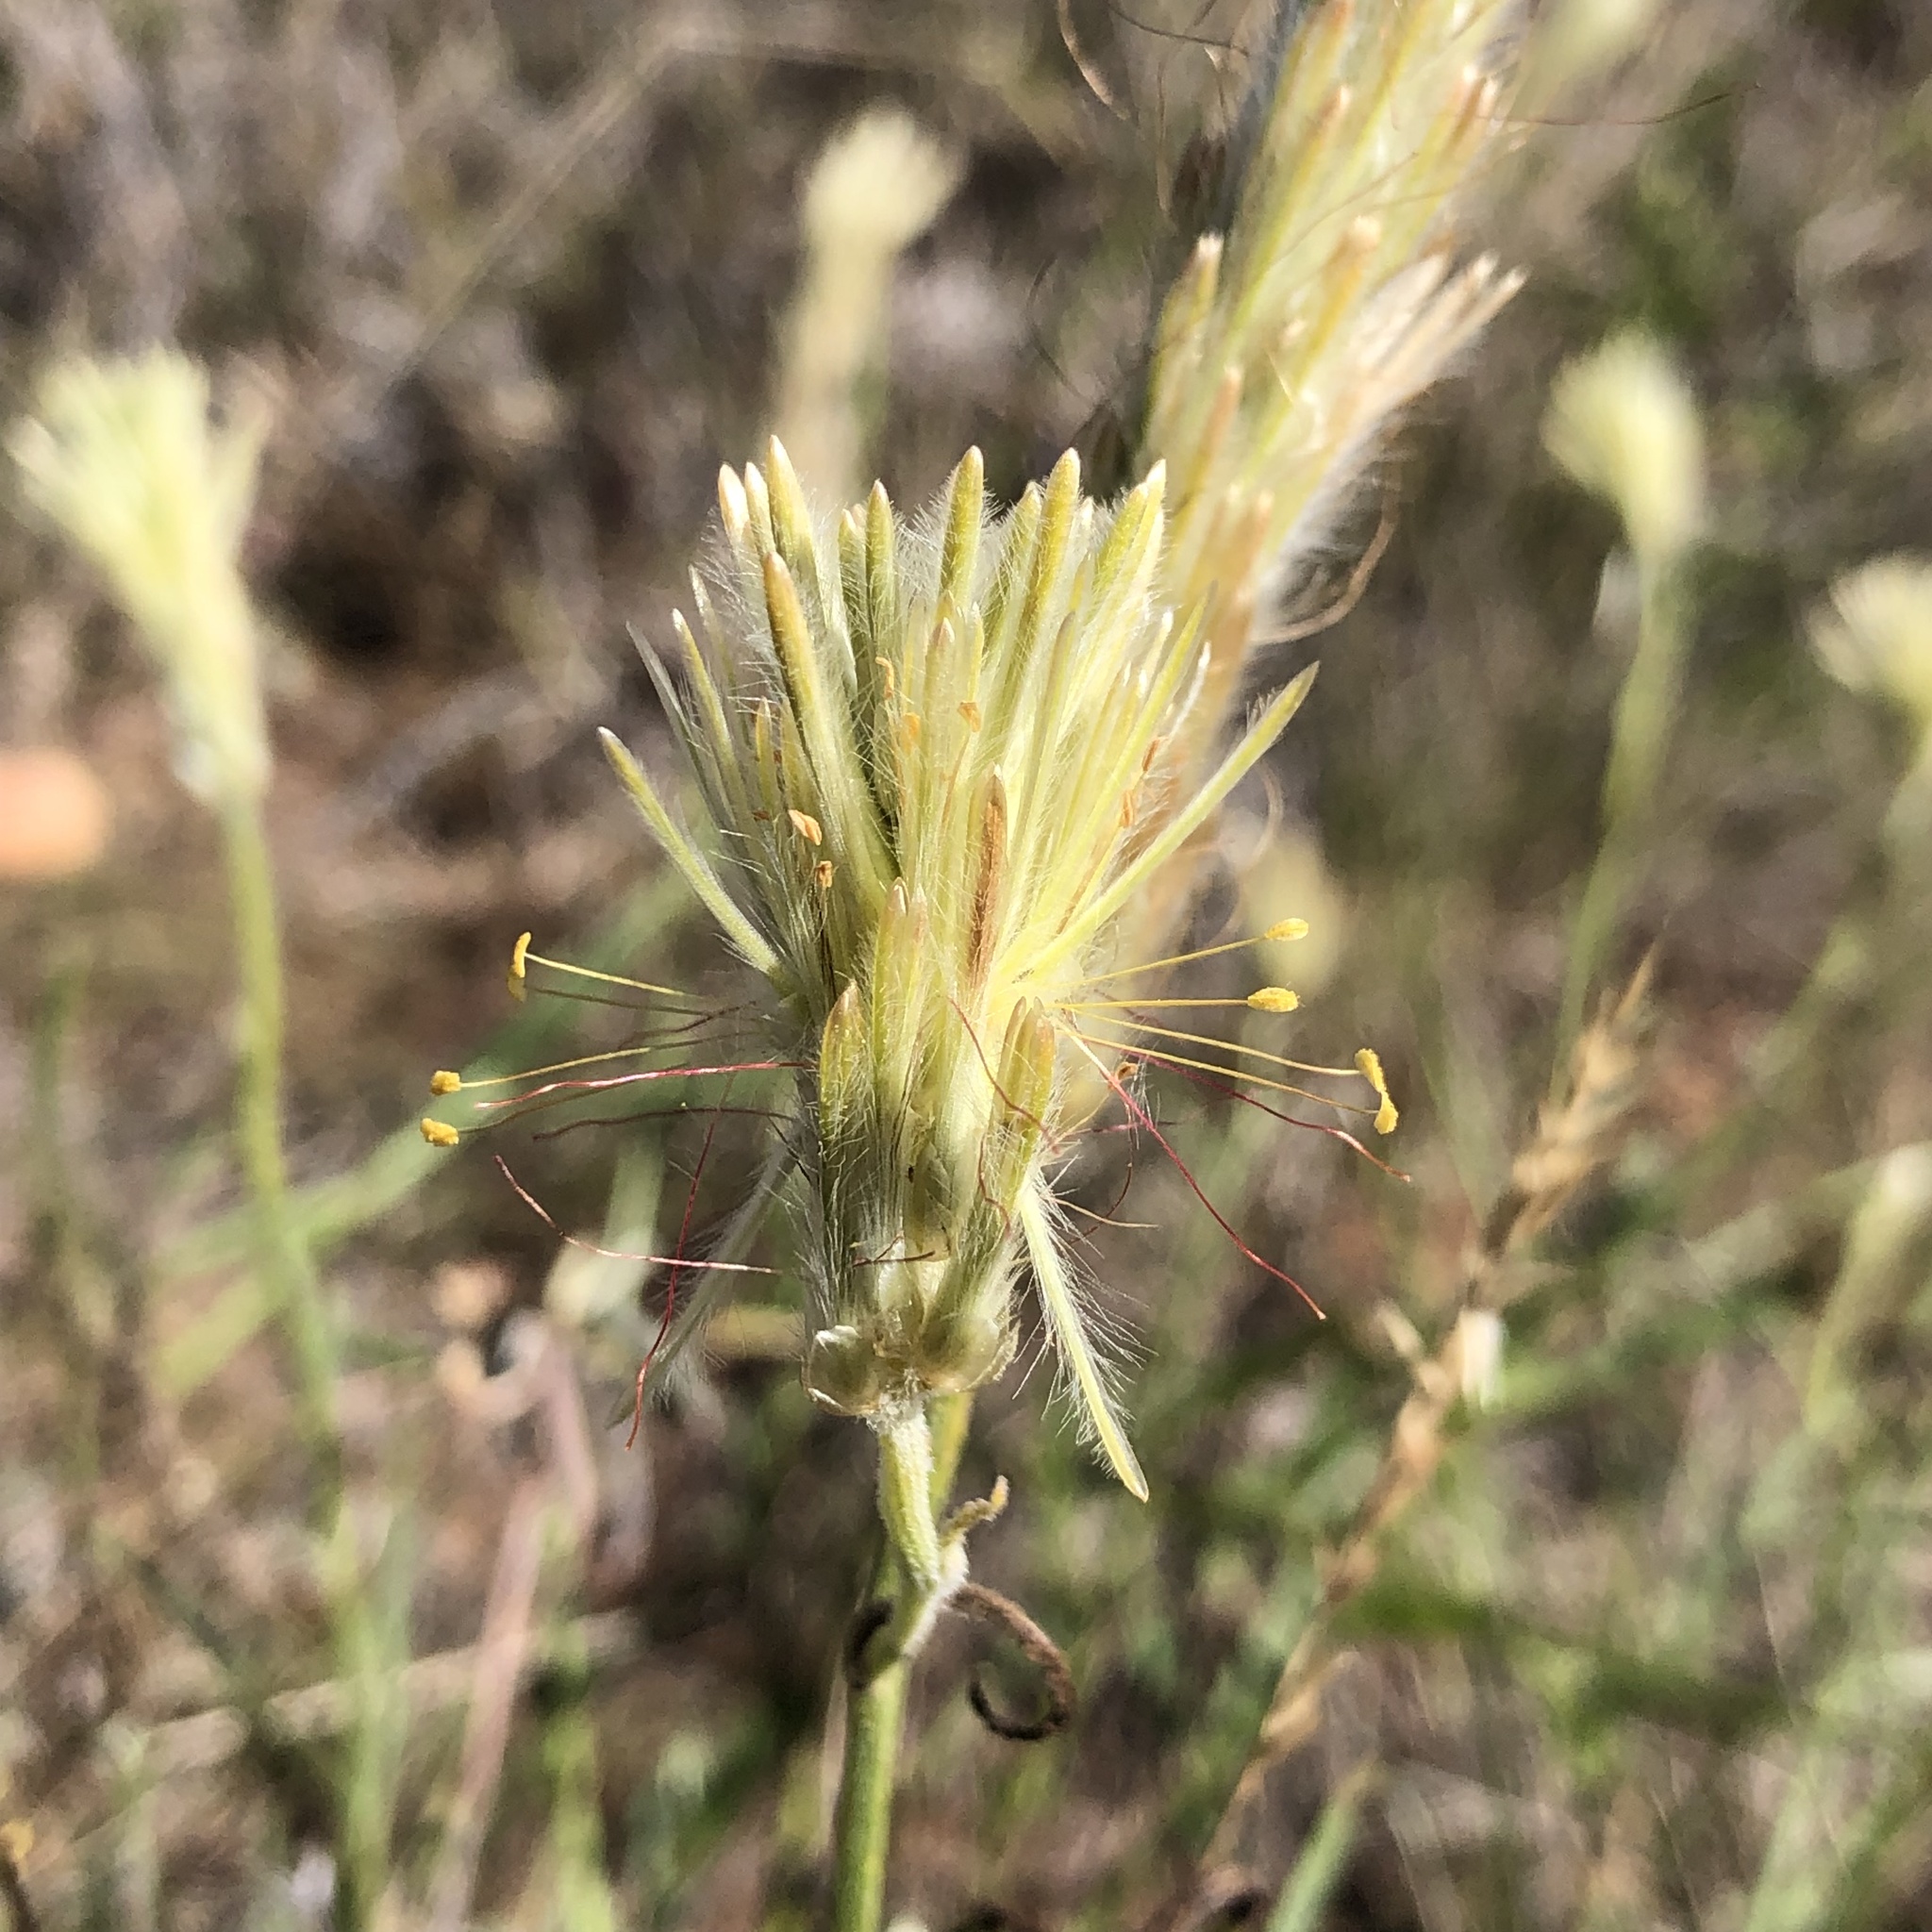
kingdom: Plantae
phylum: Tracheophyta
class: Magnoliopsida
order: Caryophyllales
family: Amaranthaceae
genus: Ptilotus
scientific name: Ptilotus polystachyus
